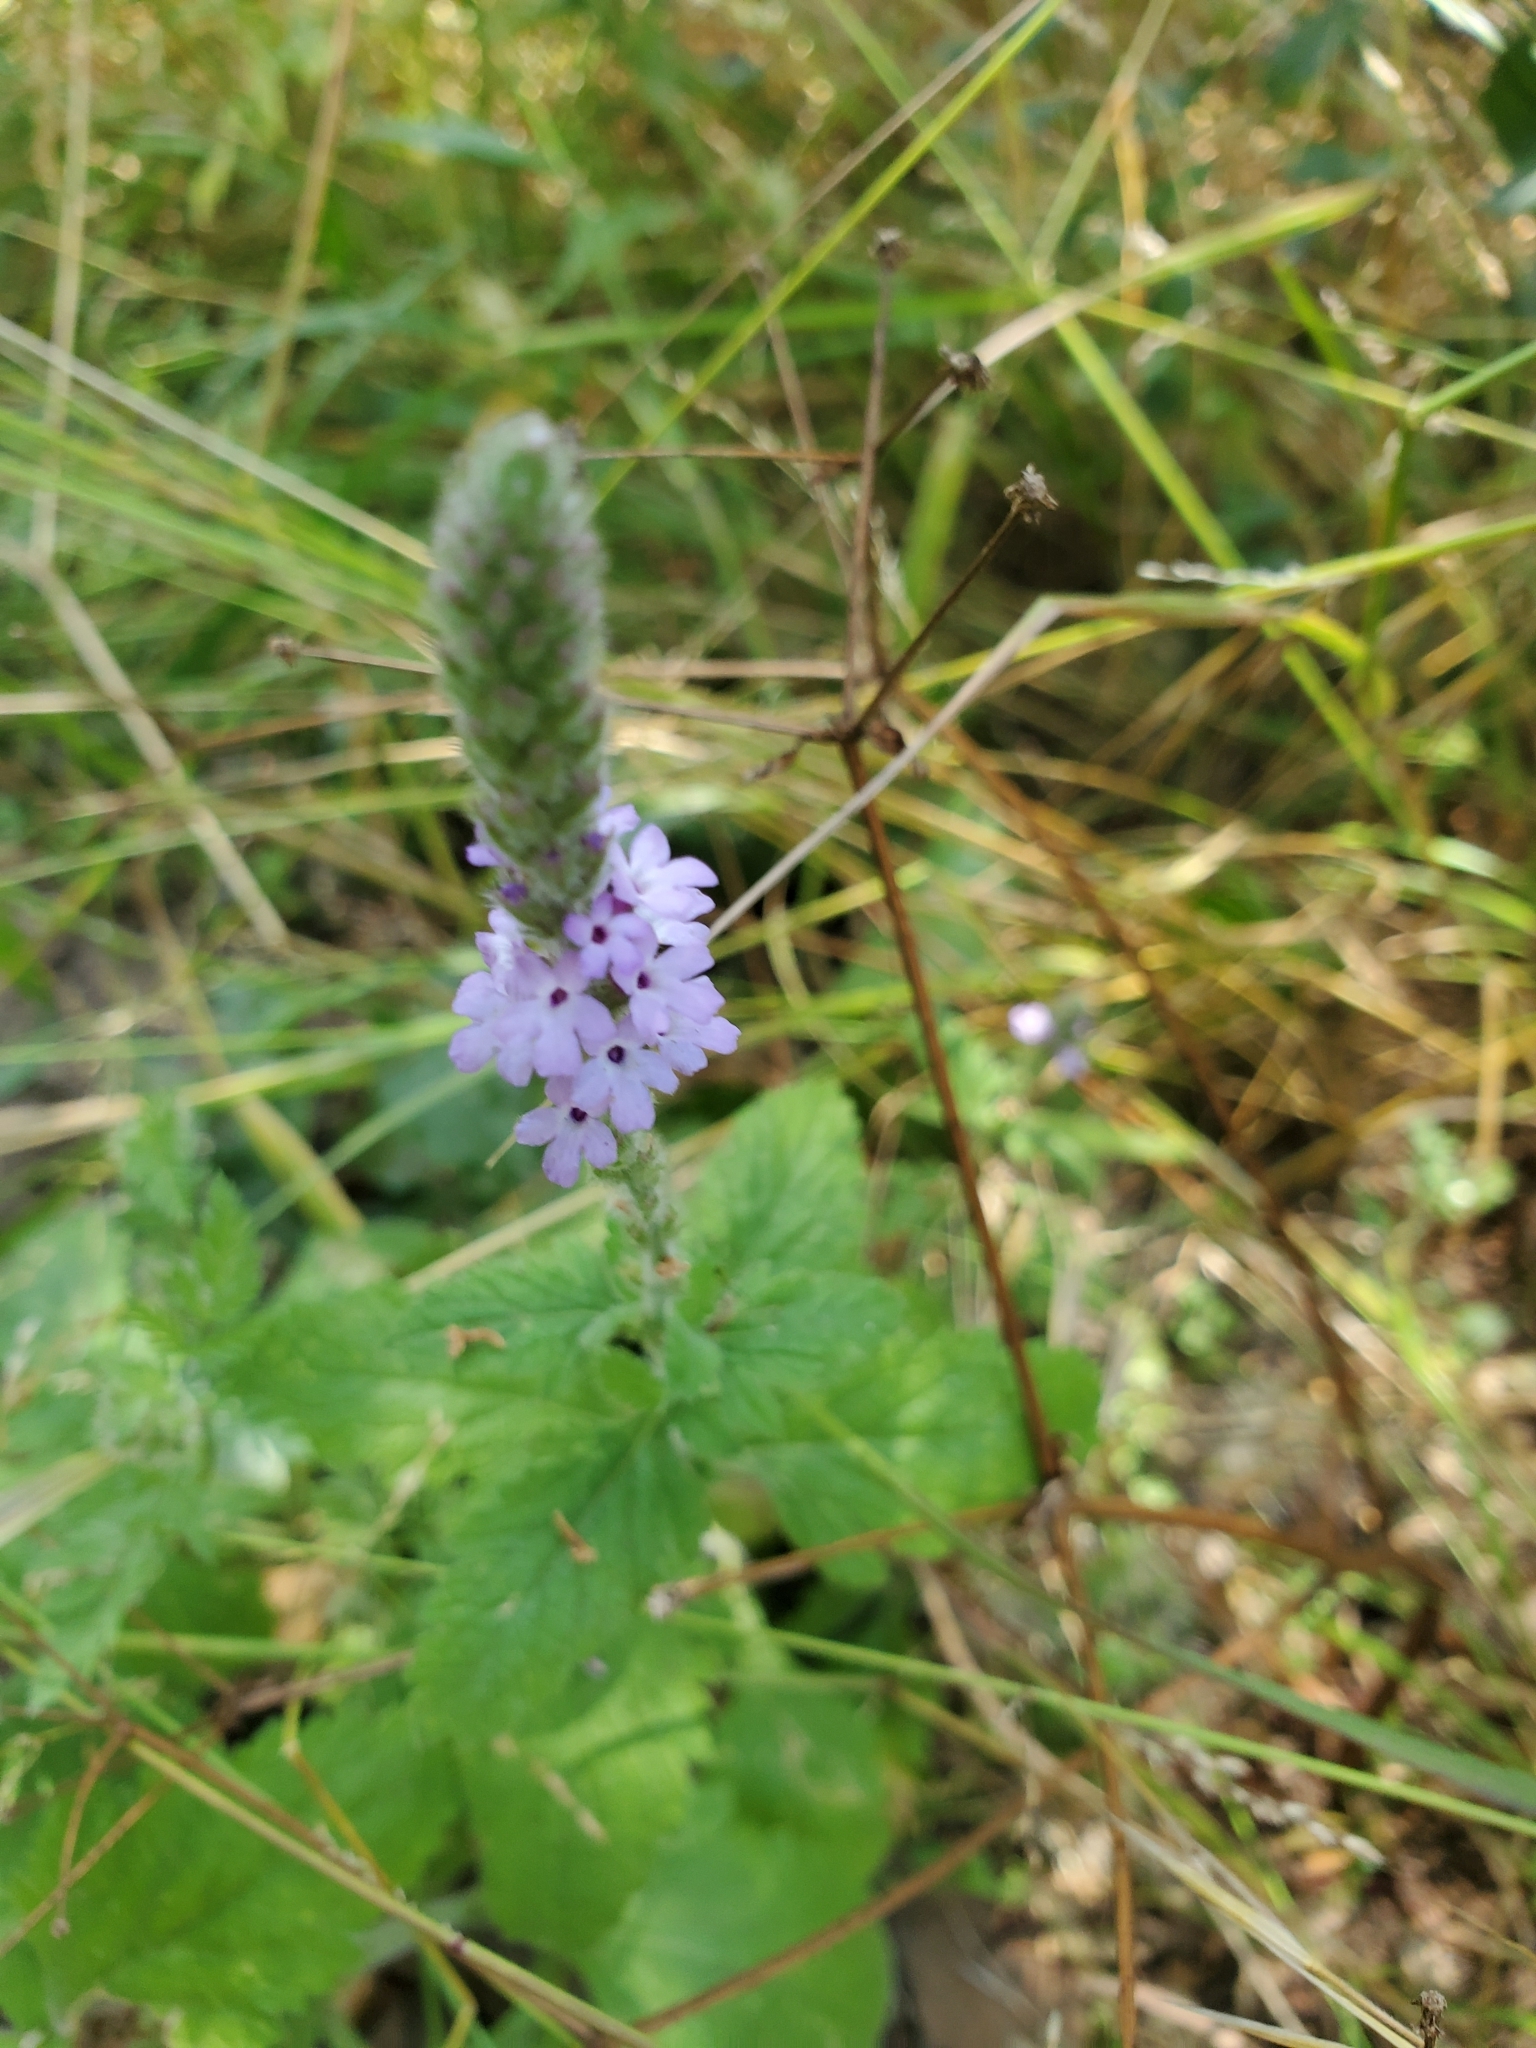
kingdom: Plantae
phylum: Tracheophyta
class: Magnoliopsida
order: Lamiales
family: Verbenaceae
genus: Verbena
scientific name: Verbena lasiostachys
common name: Vervain
